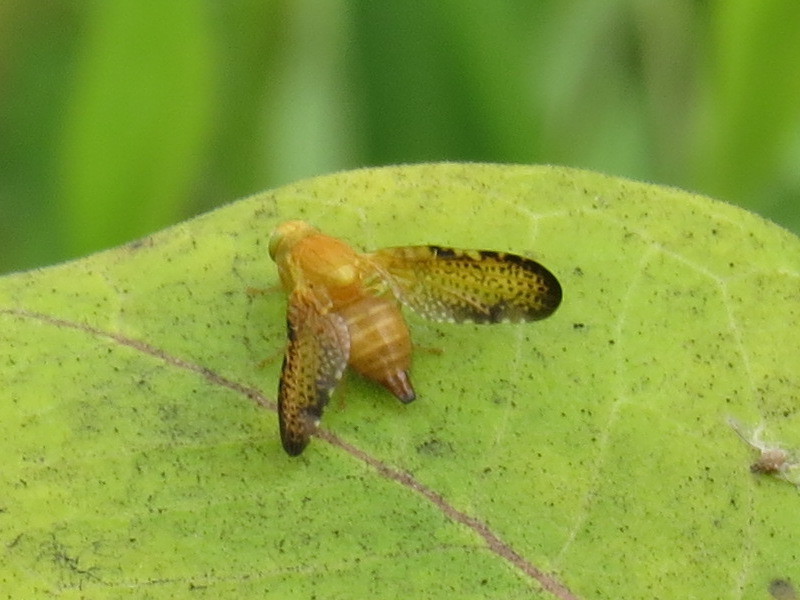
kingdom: Animalia
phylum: Arthropoda
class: Insecta
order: Diptera
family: Tephritidae
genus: Icterica
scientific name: Icterica seriata
